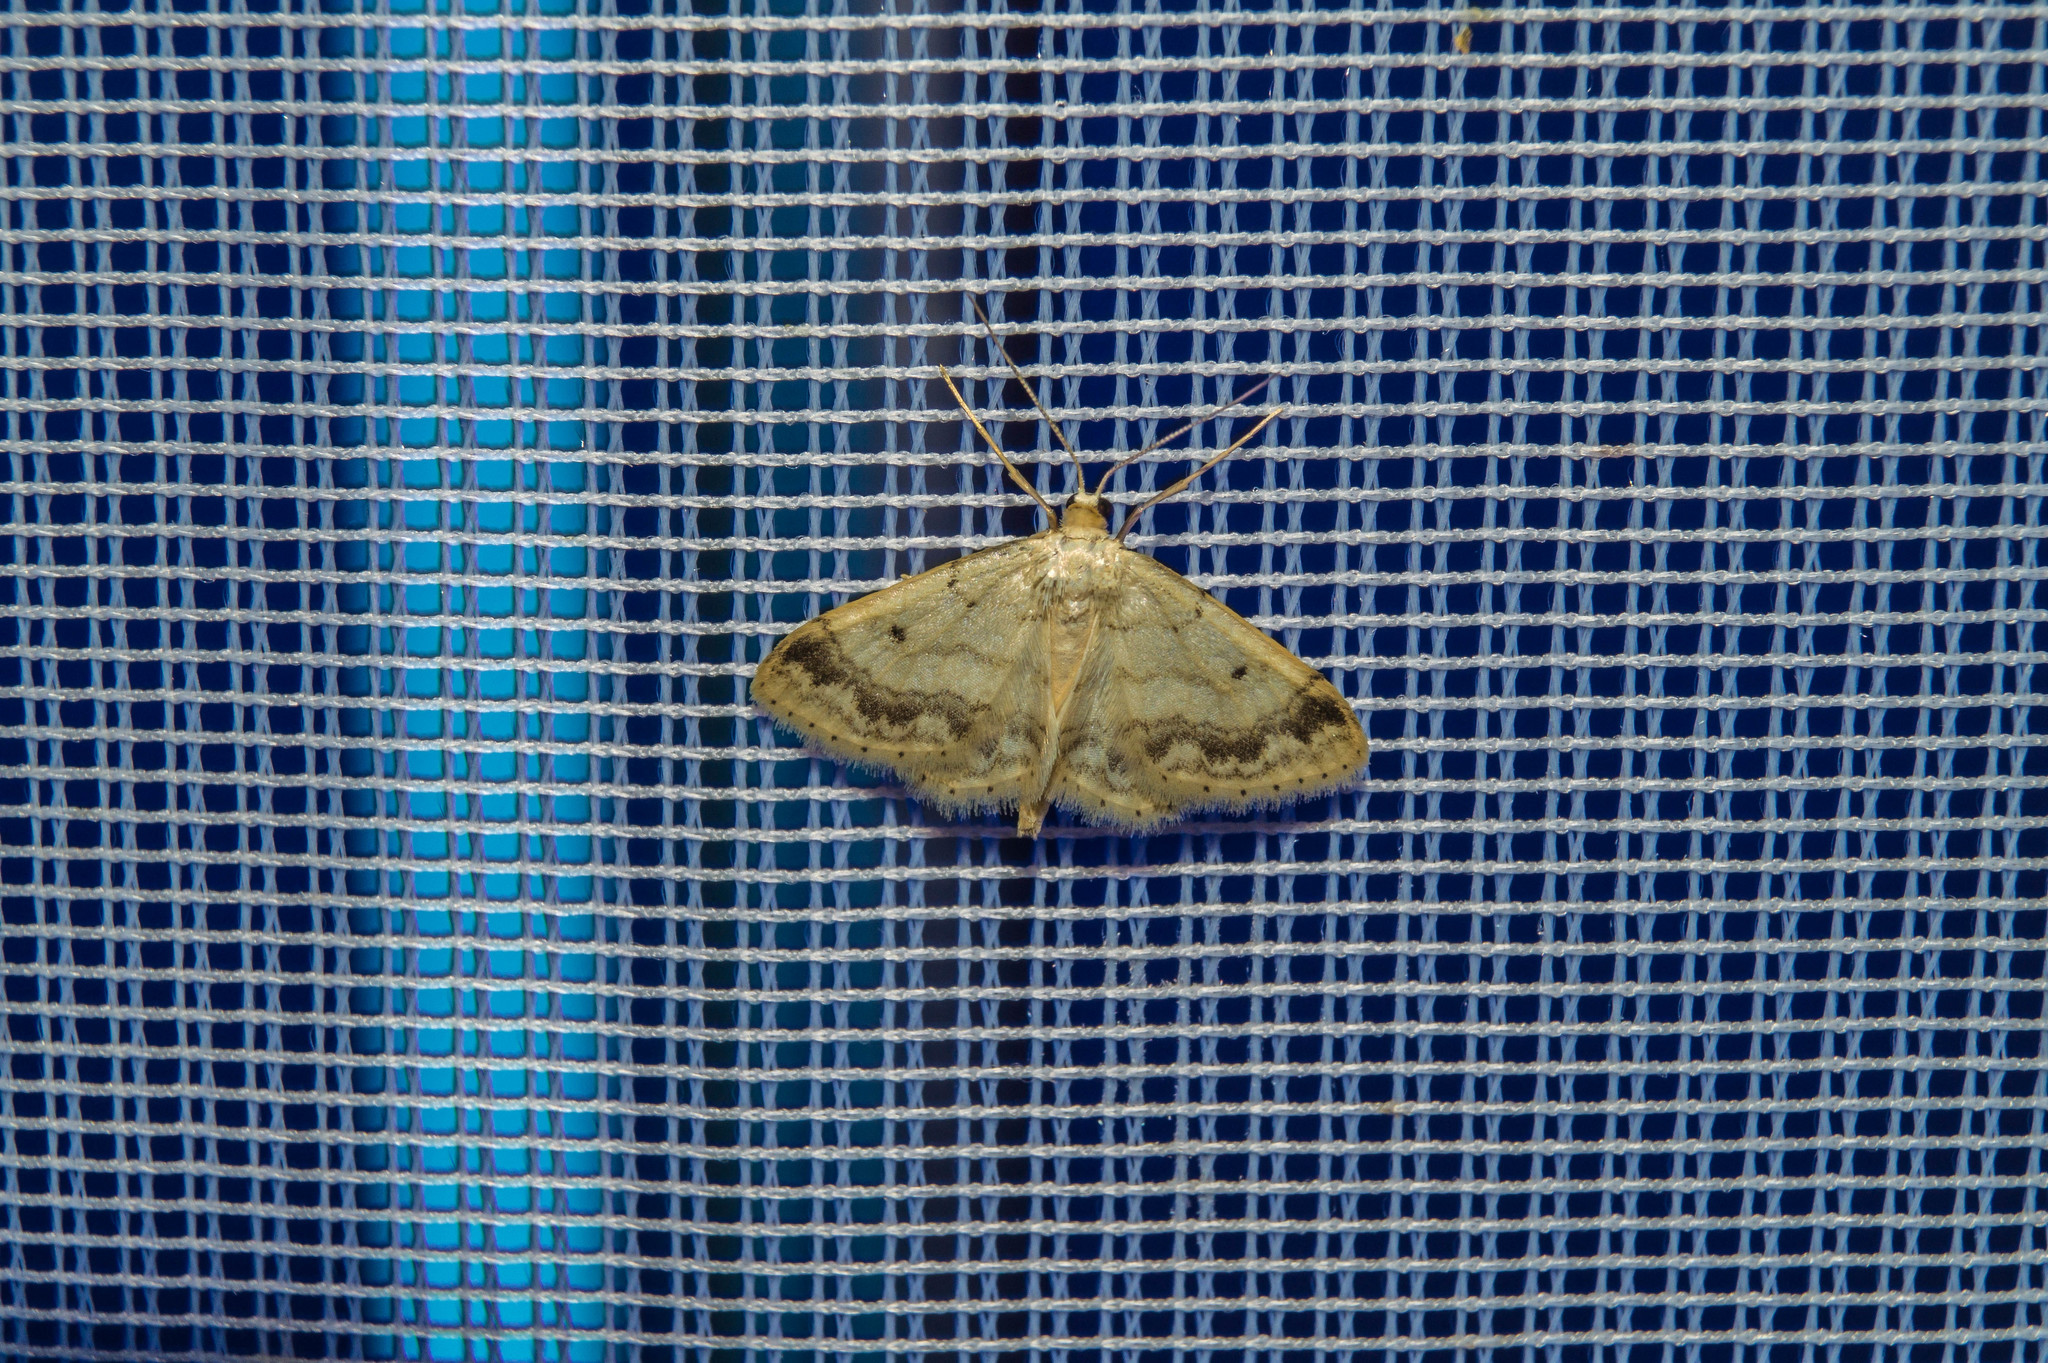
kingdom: Animalia
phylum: Arthropoda
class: Insecta
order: Lepidoptera
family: Geometridae
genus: Idaea
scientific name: Idaea biselata
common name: Small fan-footed wave
